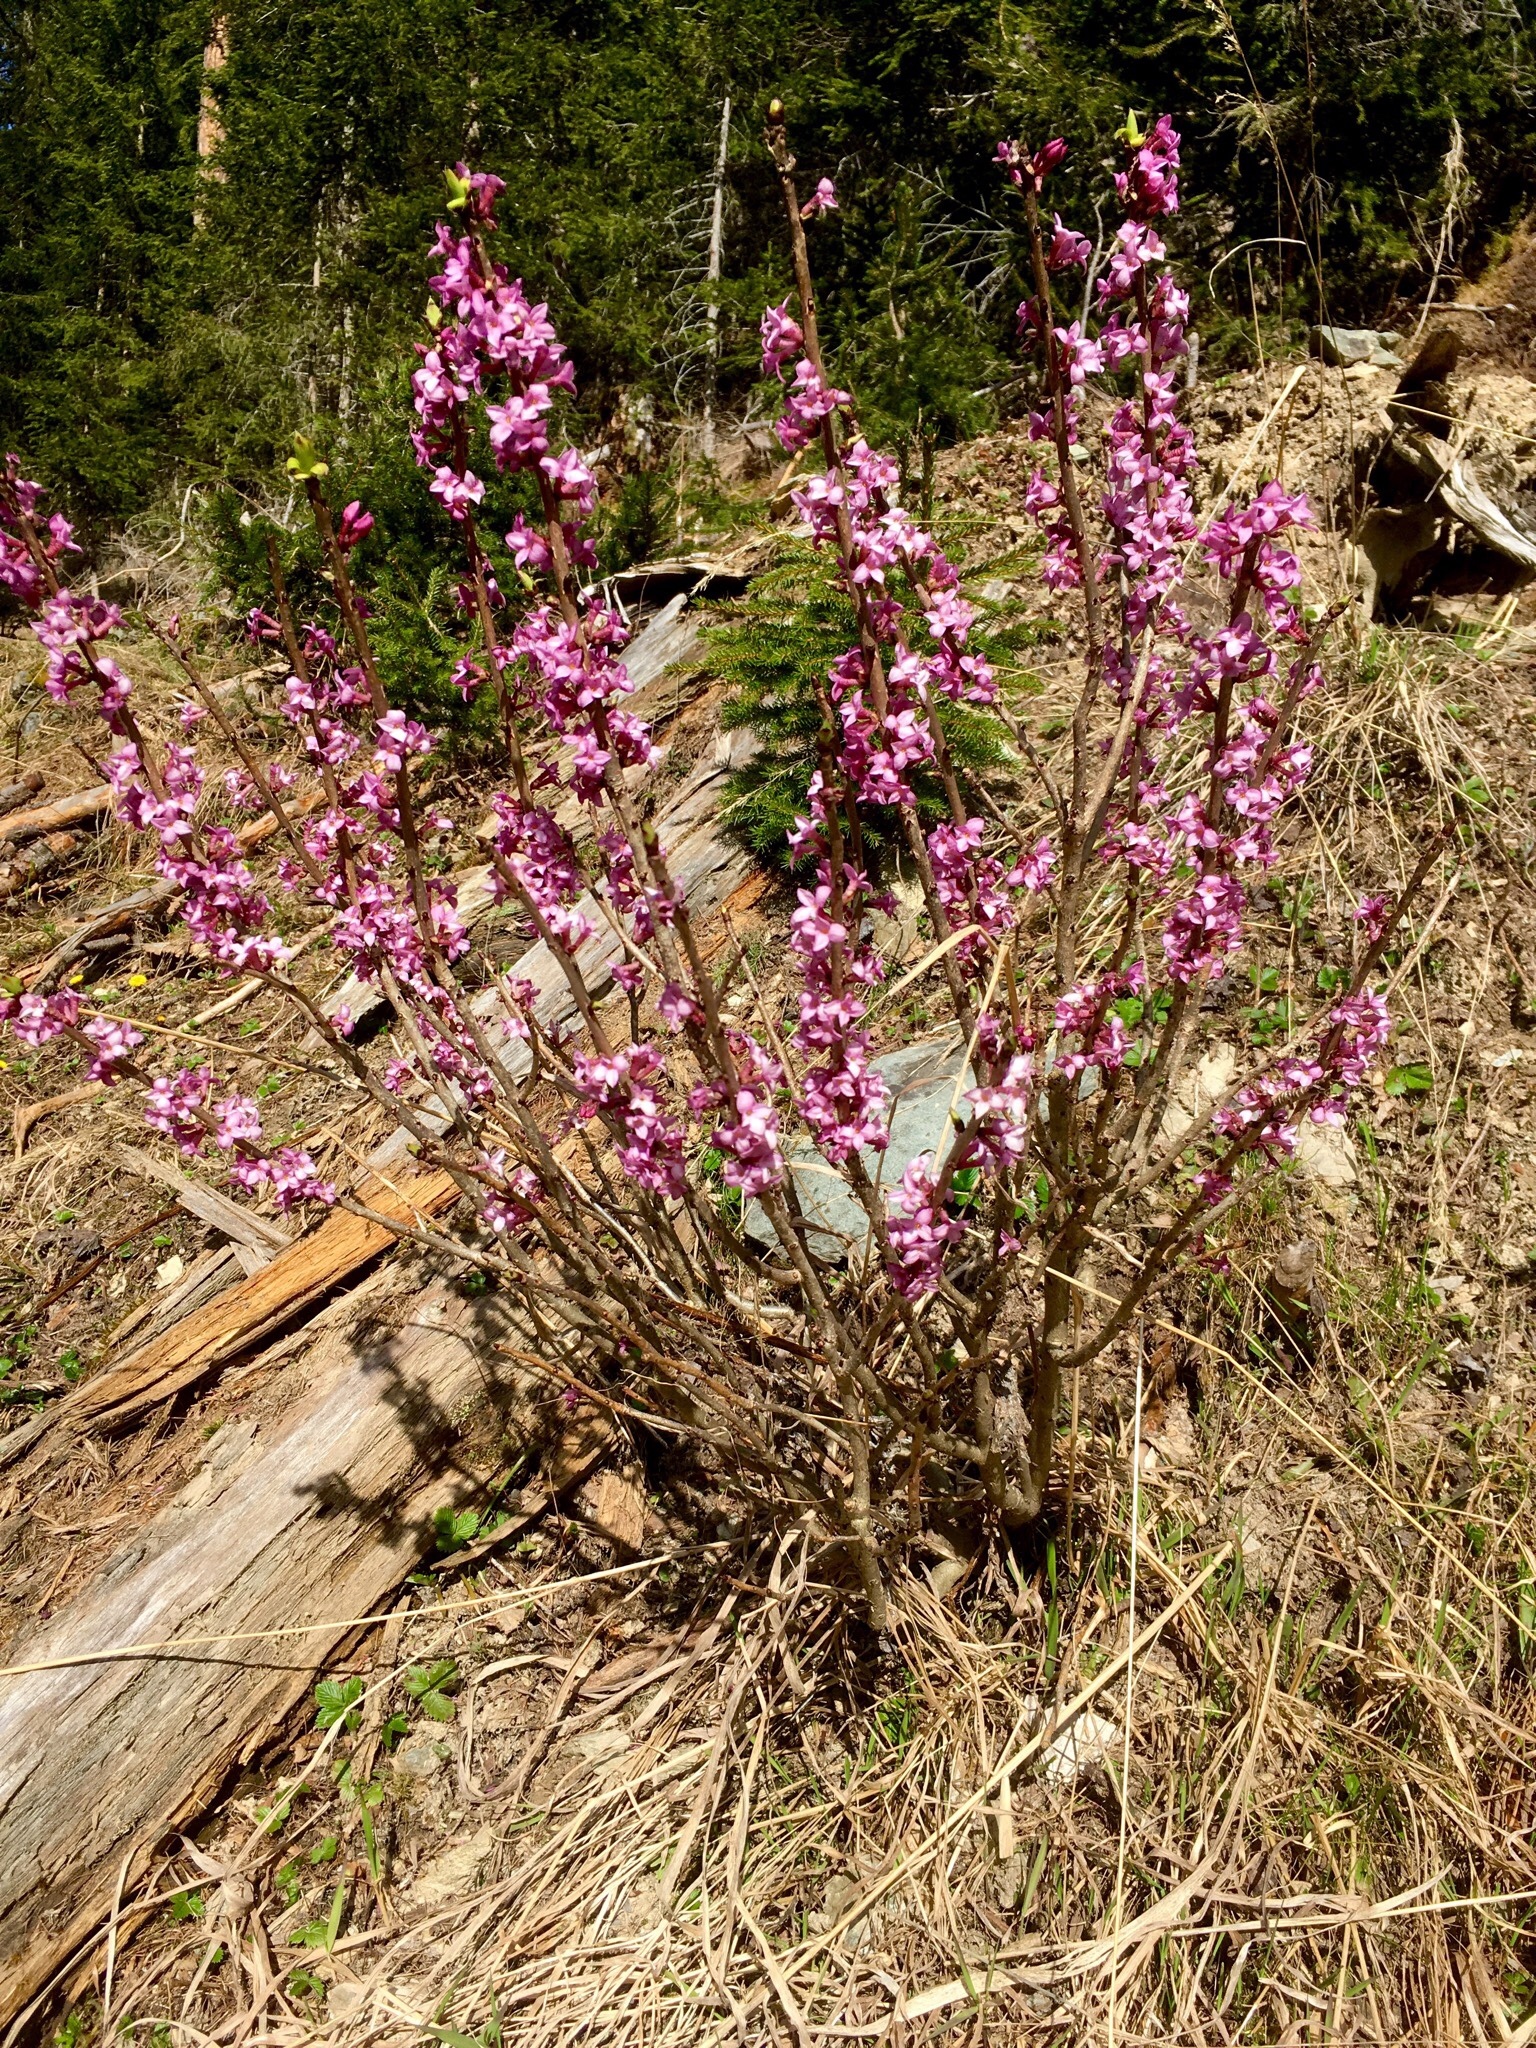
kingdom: Plantae
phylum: Tracheophyta
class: Magnoliopsida
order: Malvales
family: Thymelaeaceae
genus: Daphne
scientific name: Daphne mezereum
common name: Mezereon
